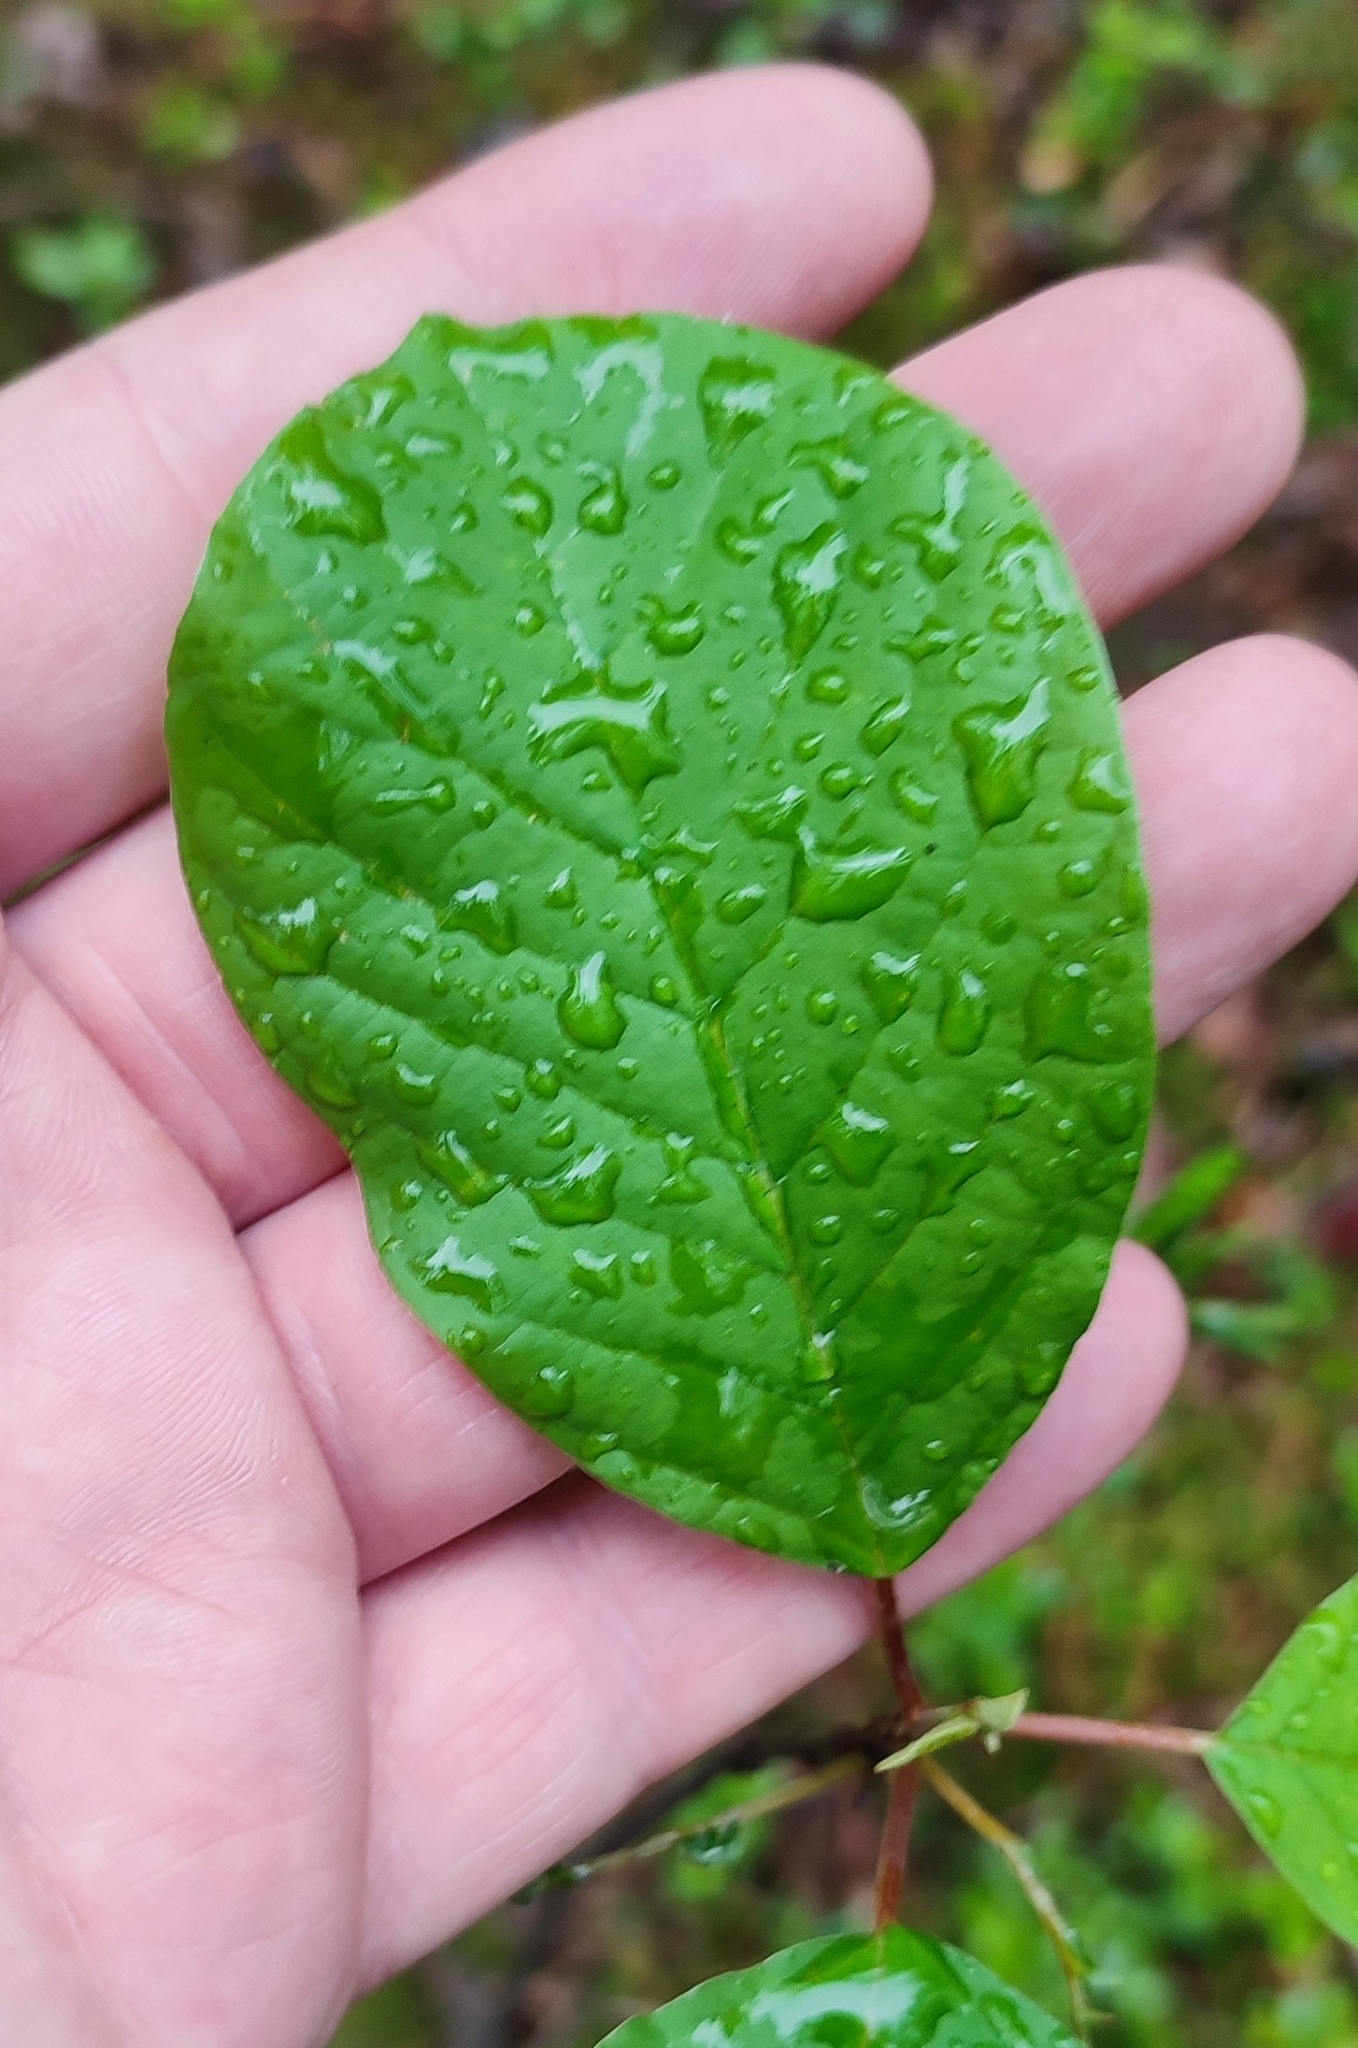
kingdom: Plantae
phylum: Tracheophyta
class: Magnoliopsida
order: Rosales
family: Rhamnaceae
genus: Frangula
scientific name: Frangula alnus
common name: Alder buckthorn
